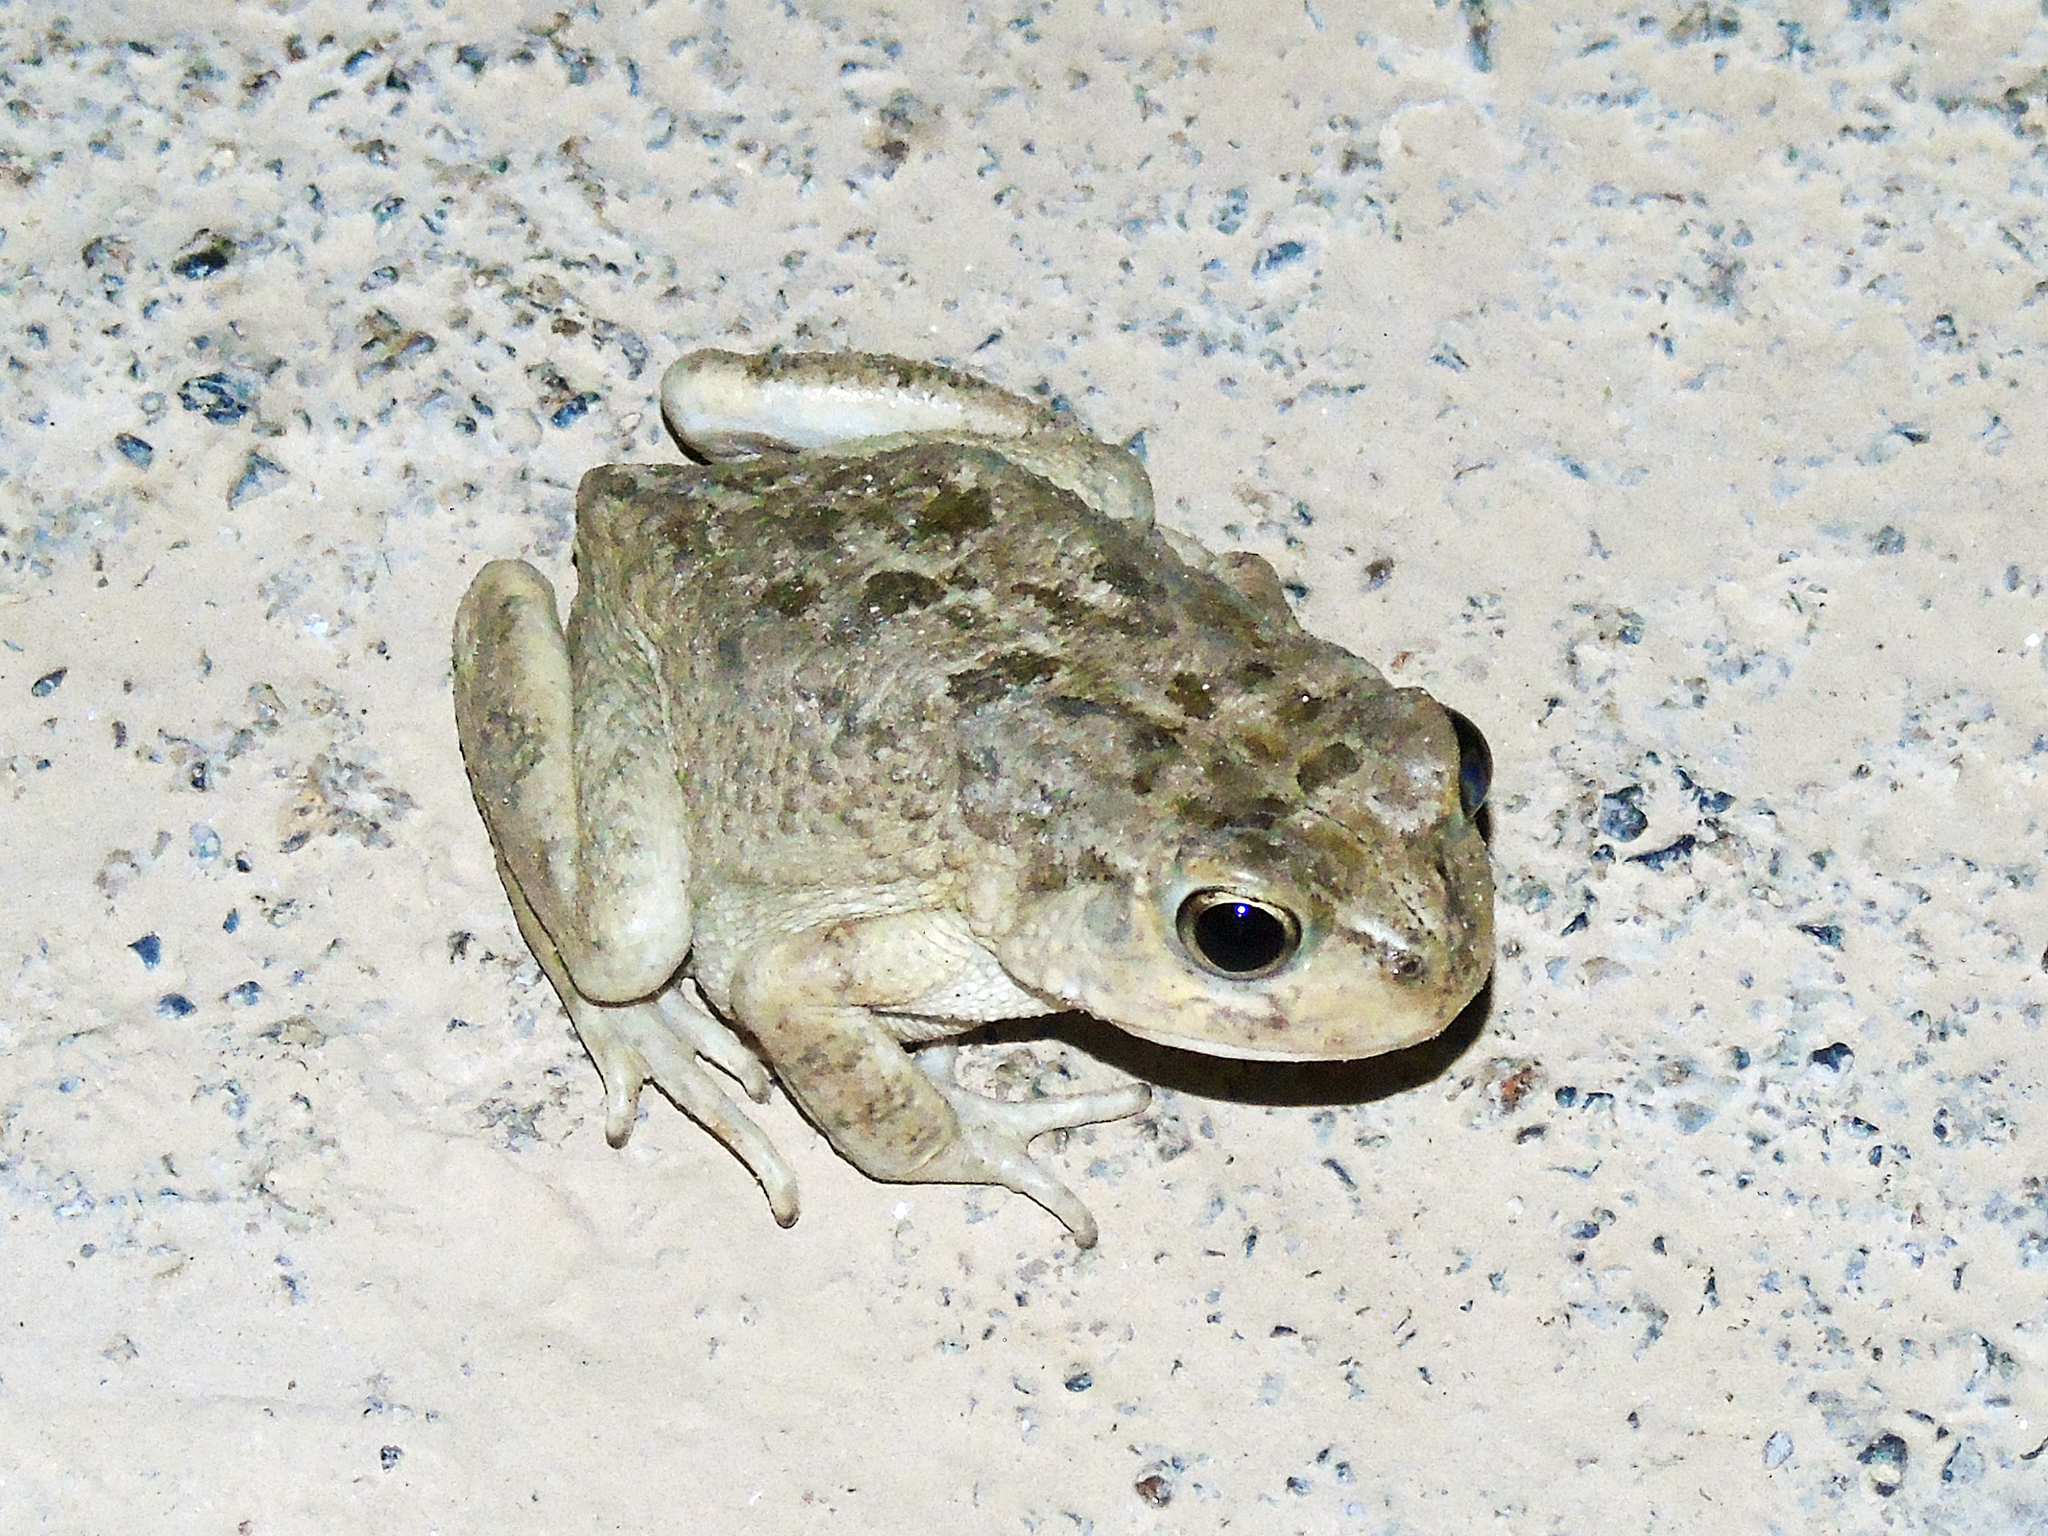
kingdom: Animalia
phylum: Chordata
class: Amphibia
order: Anura
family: Bufonidae
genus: Sclerophrys
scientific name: Sclerophrys arabica
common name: Arabian toad
